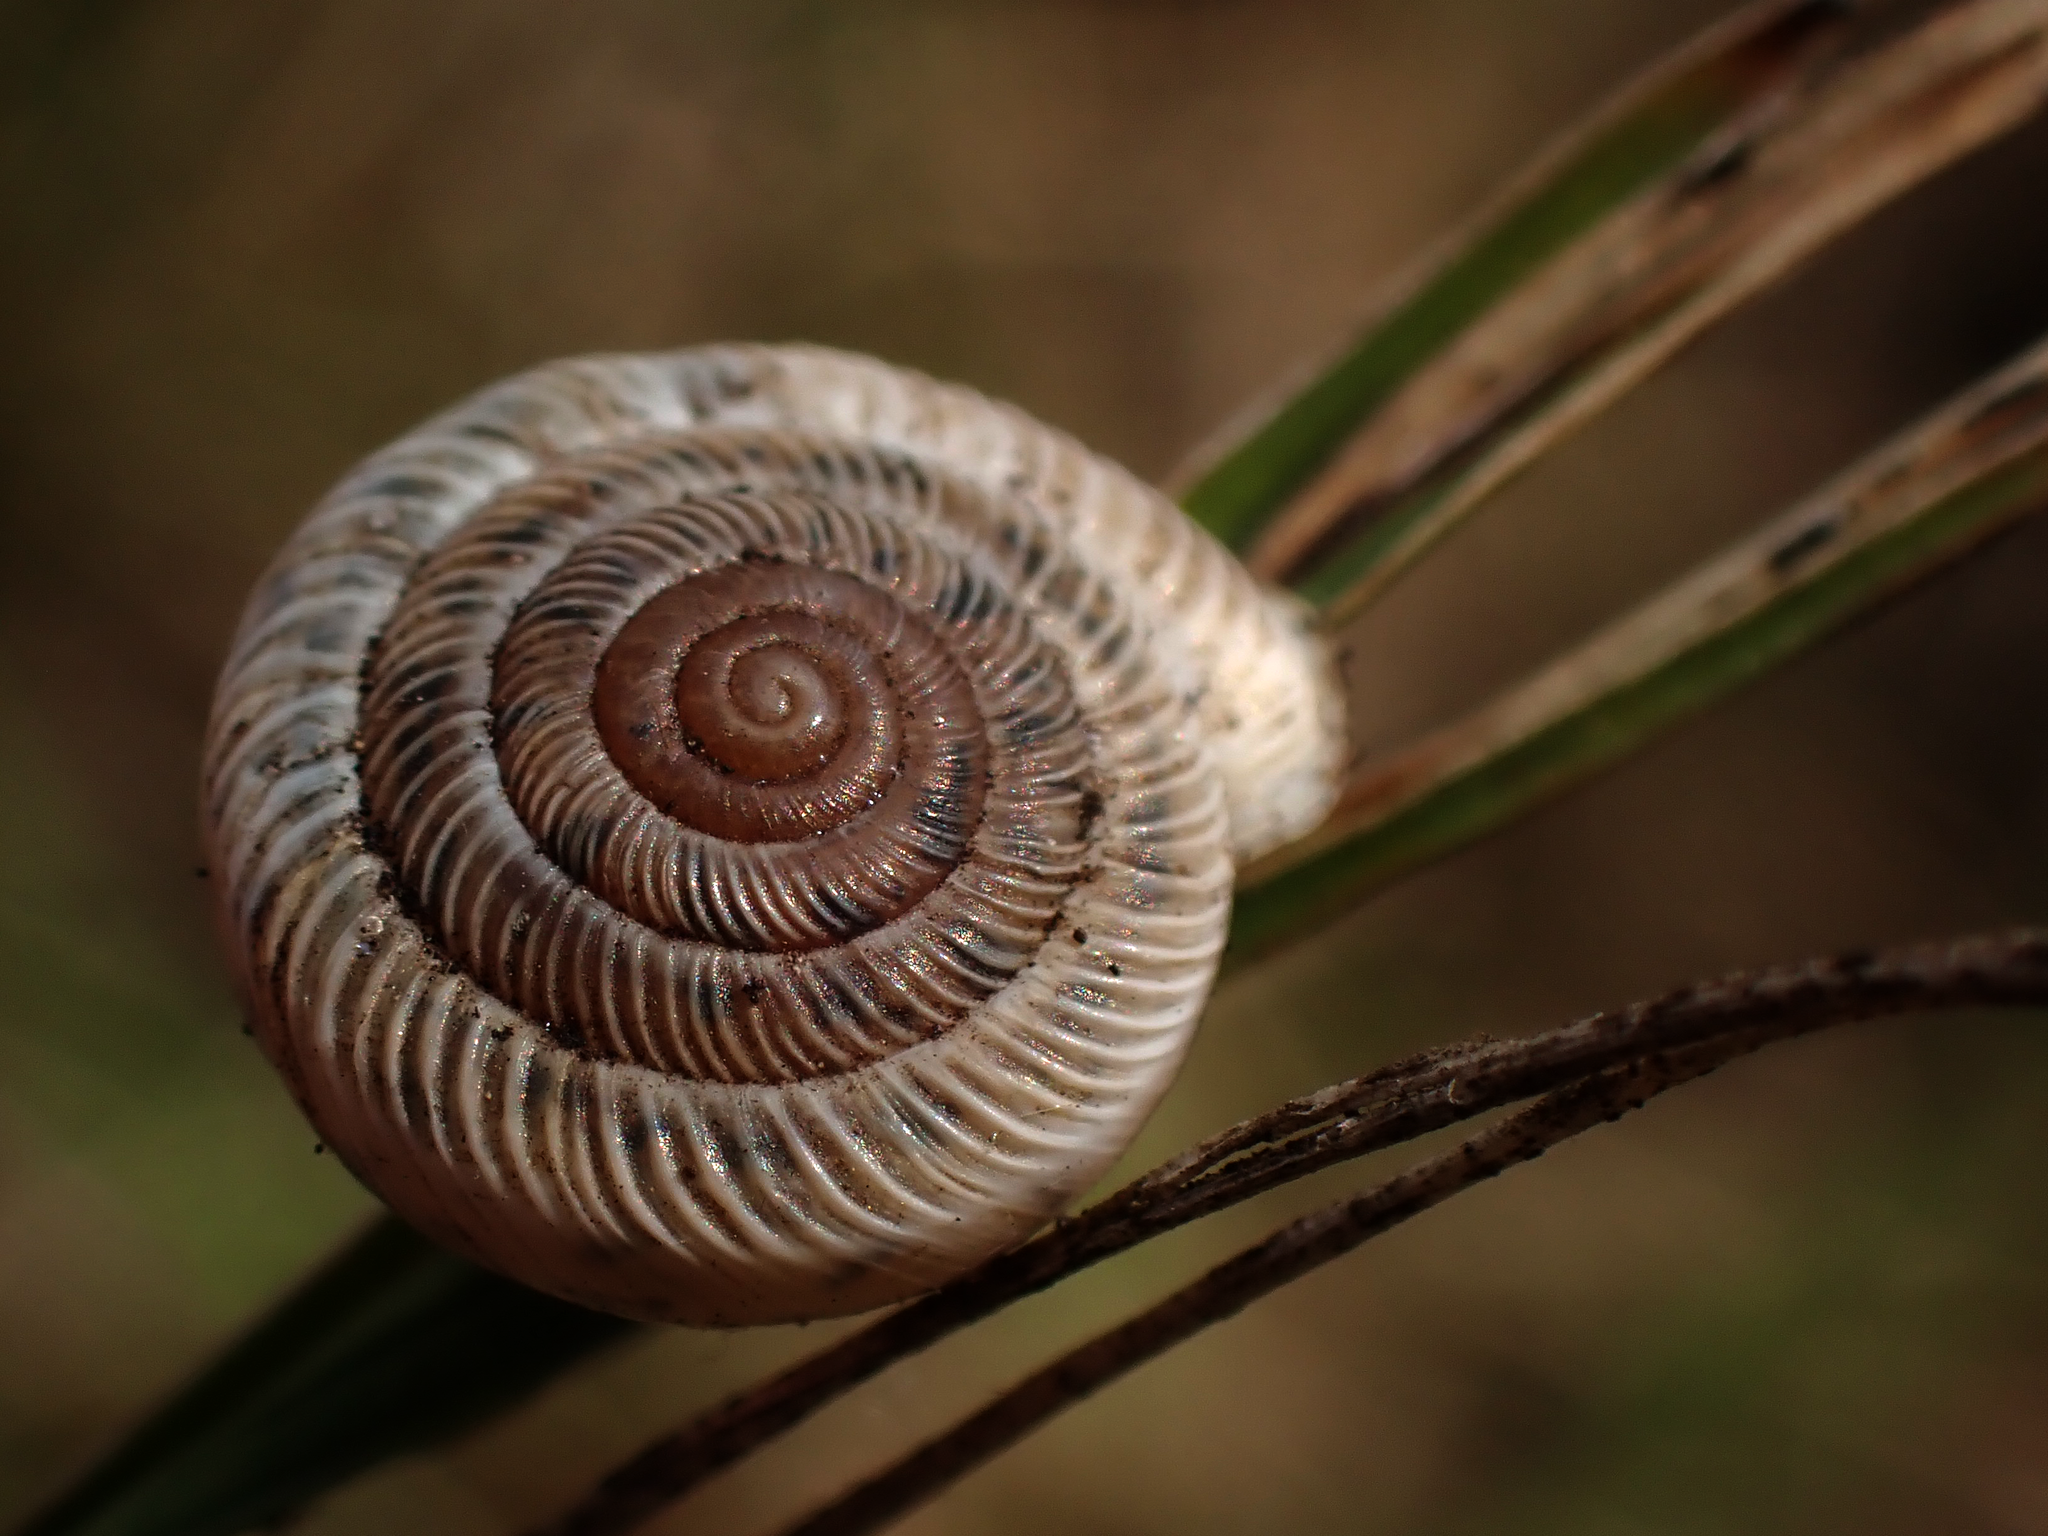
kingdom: Animalia
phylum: Mollusca
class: Gastropoda
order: Stylommatophora
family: Polygyridae
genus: Polygyra
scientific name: Polygyra cereolus
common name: Southern flatcone snail
